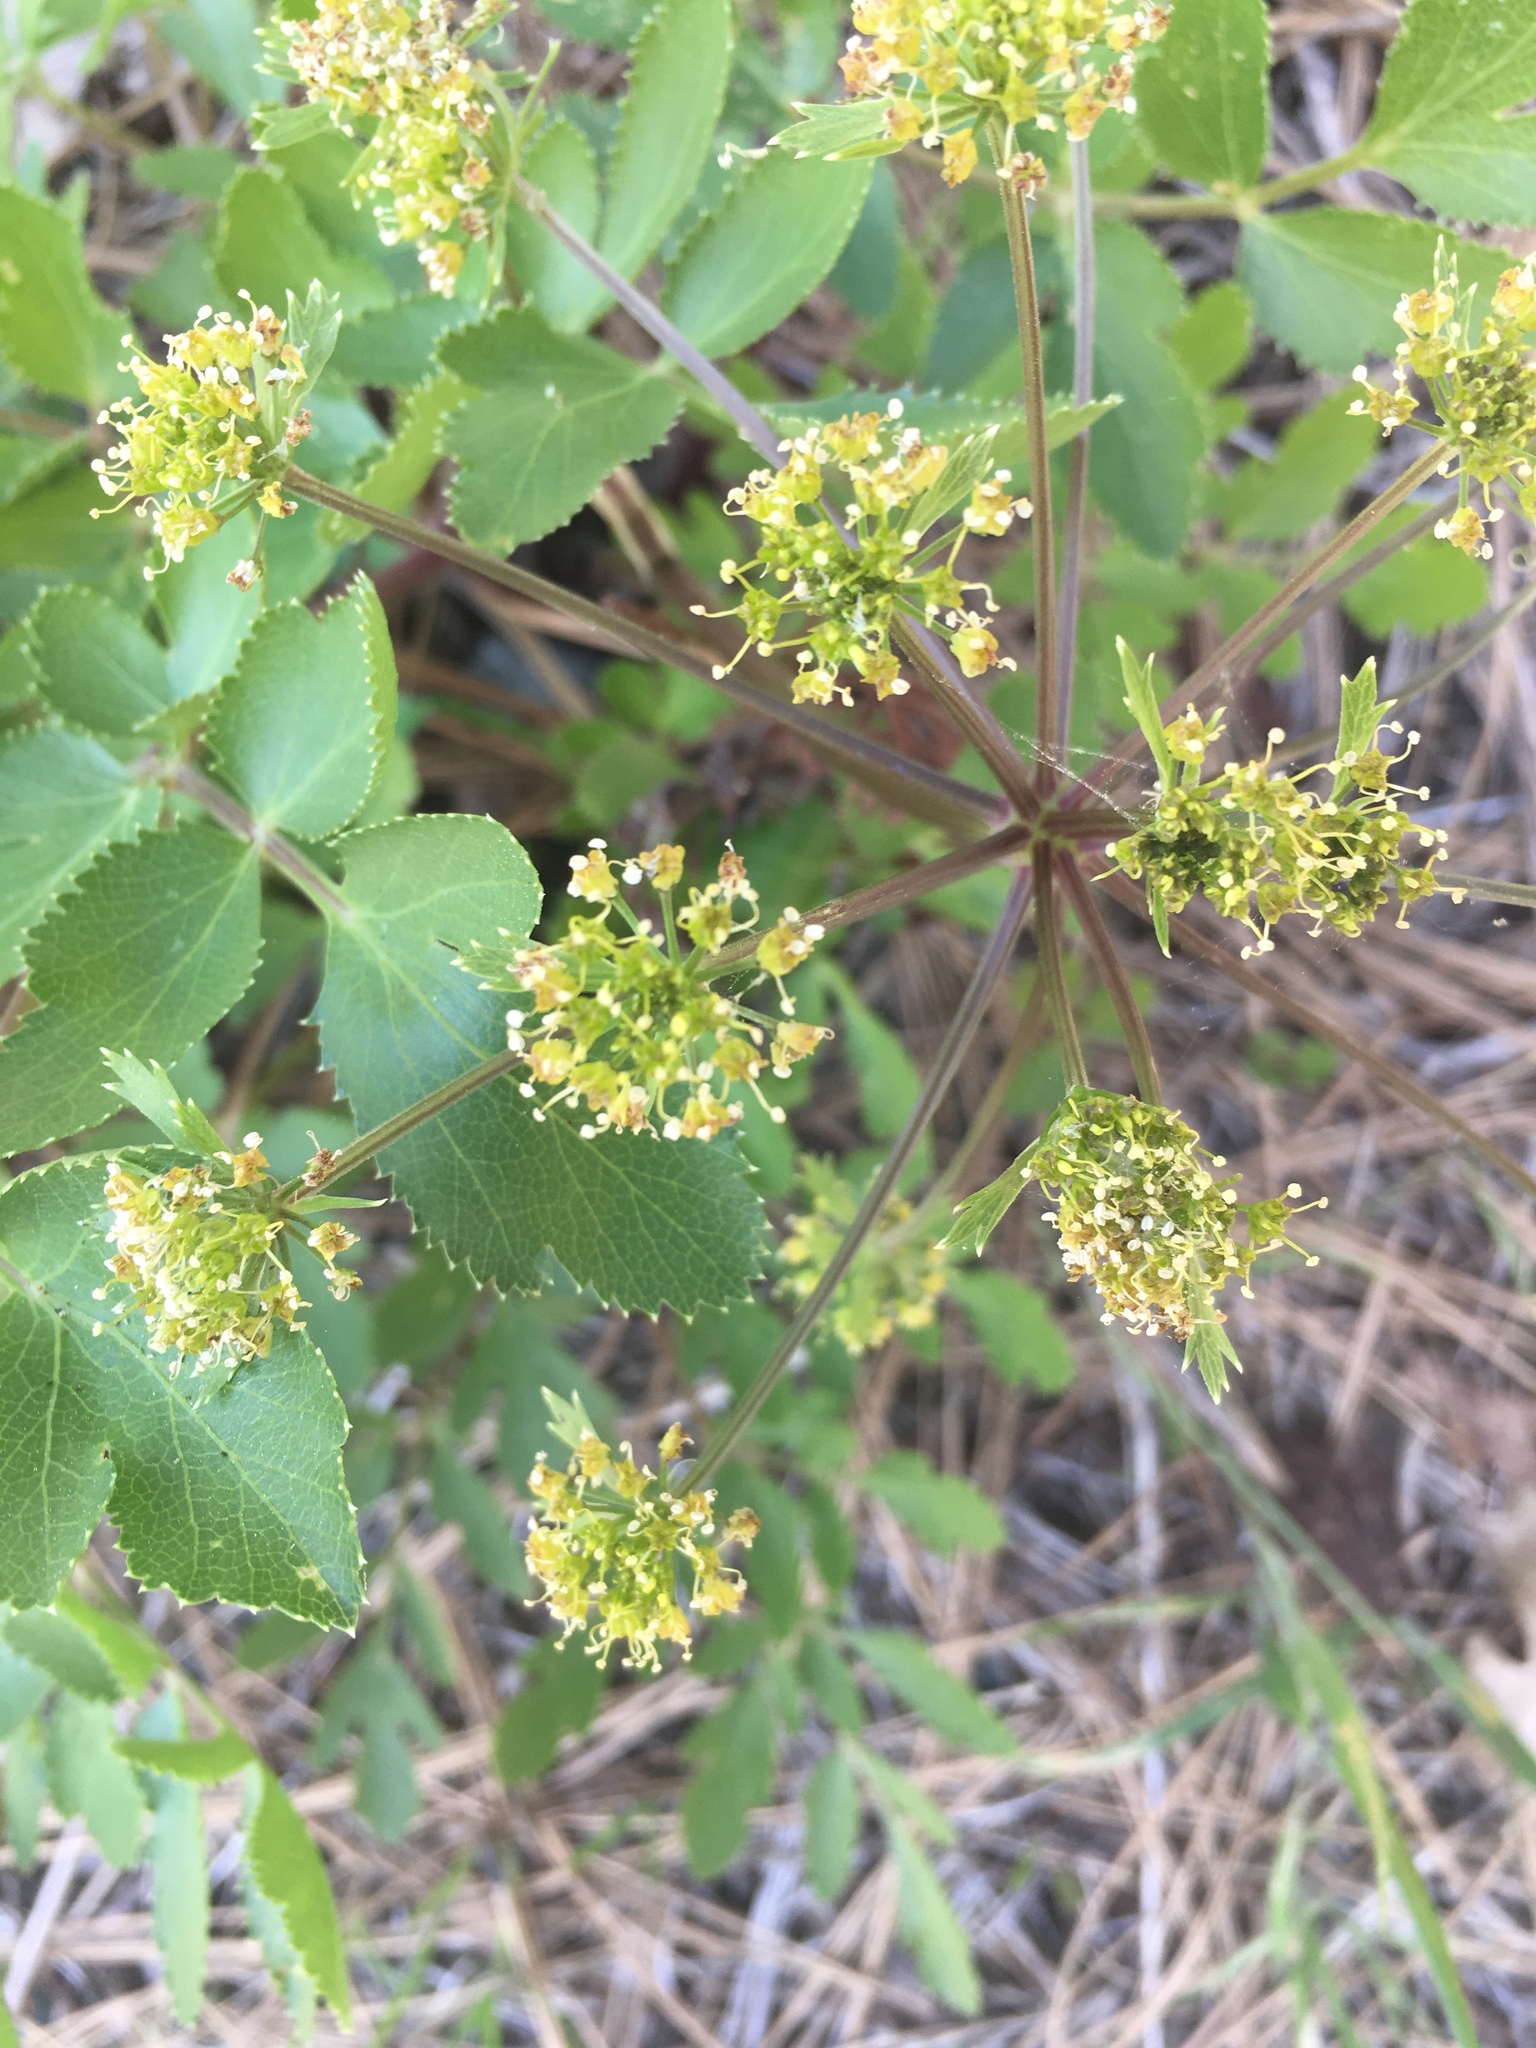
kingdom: Plantae
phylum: Tracheophyta
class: Magnoliopsida
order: Apiales
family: Apiaceae
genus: Tauschia
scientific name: Tauschia hartwegii
